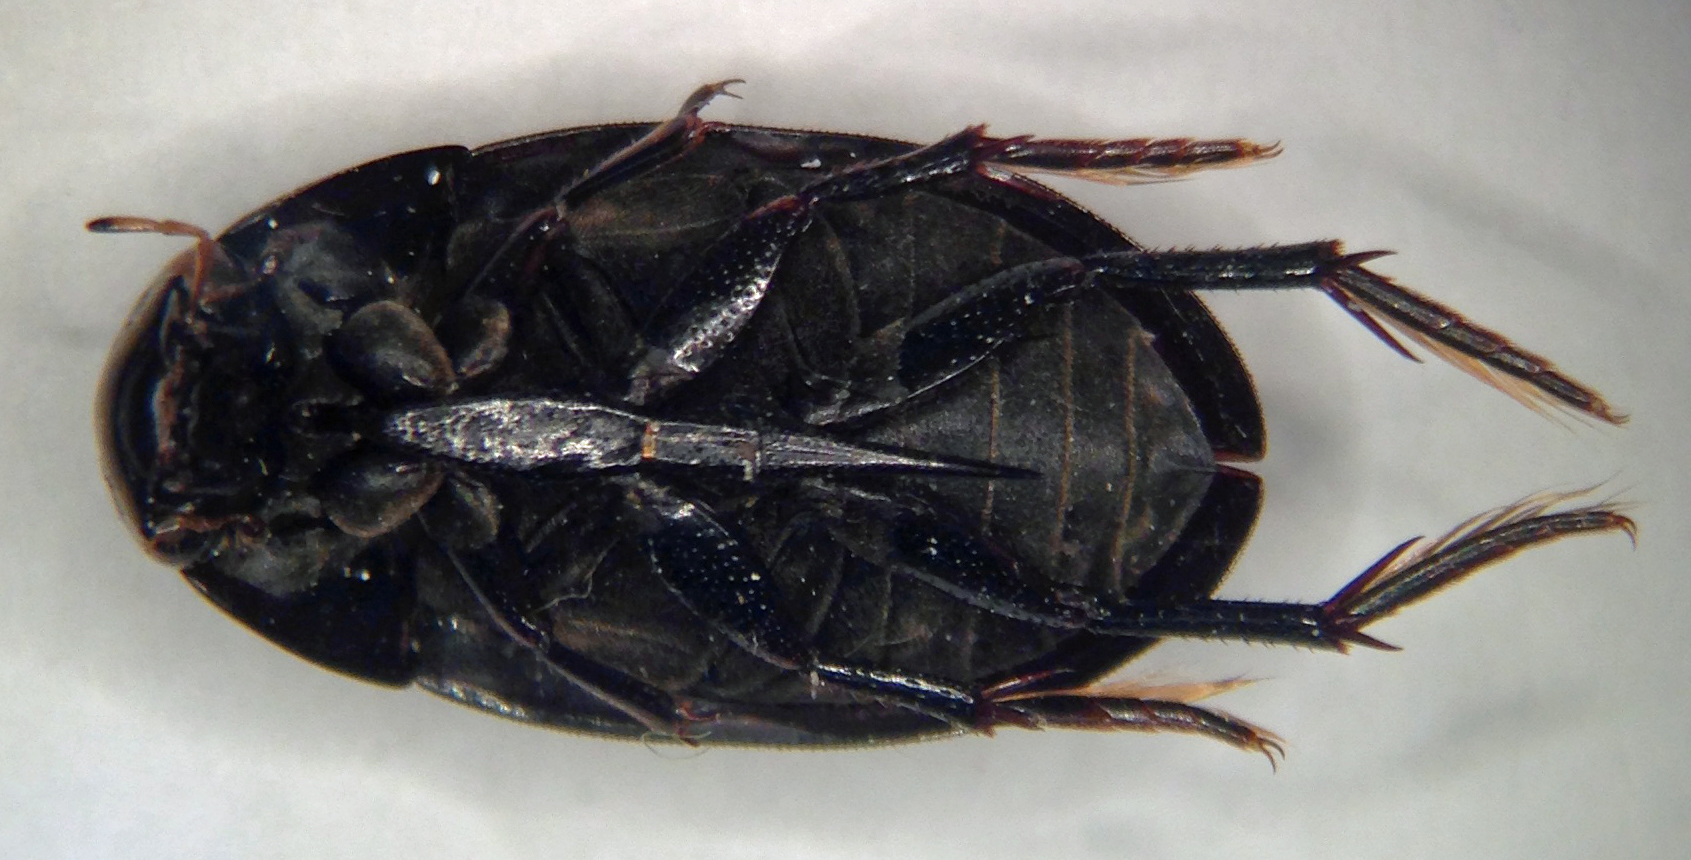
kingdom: Animalia
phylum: Arthropoda
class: Insecta
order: Coleoptera
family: Hydrophilidae
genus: Tropisternus
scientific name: Tropisternus natator
